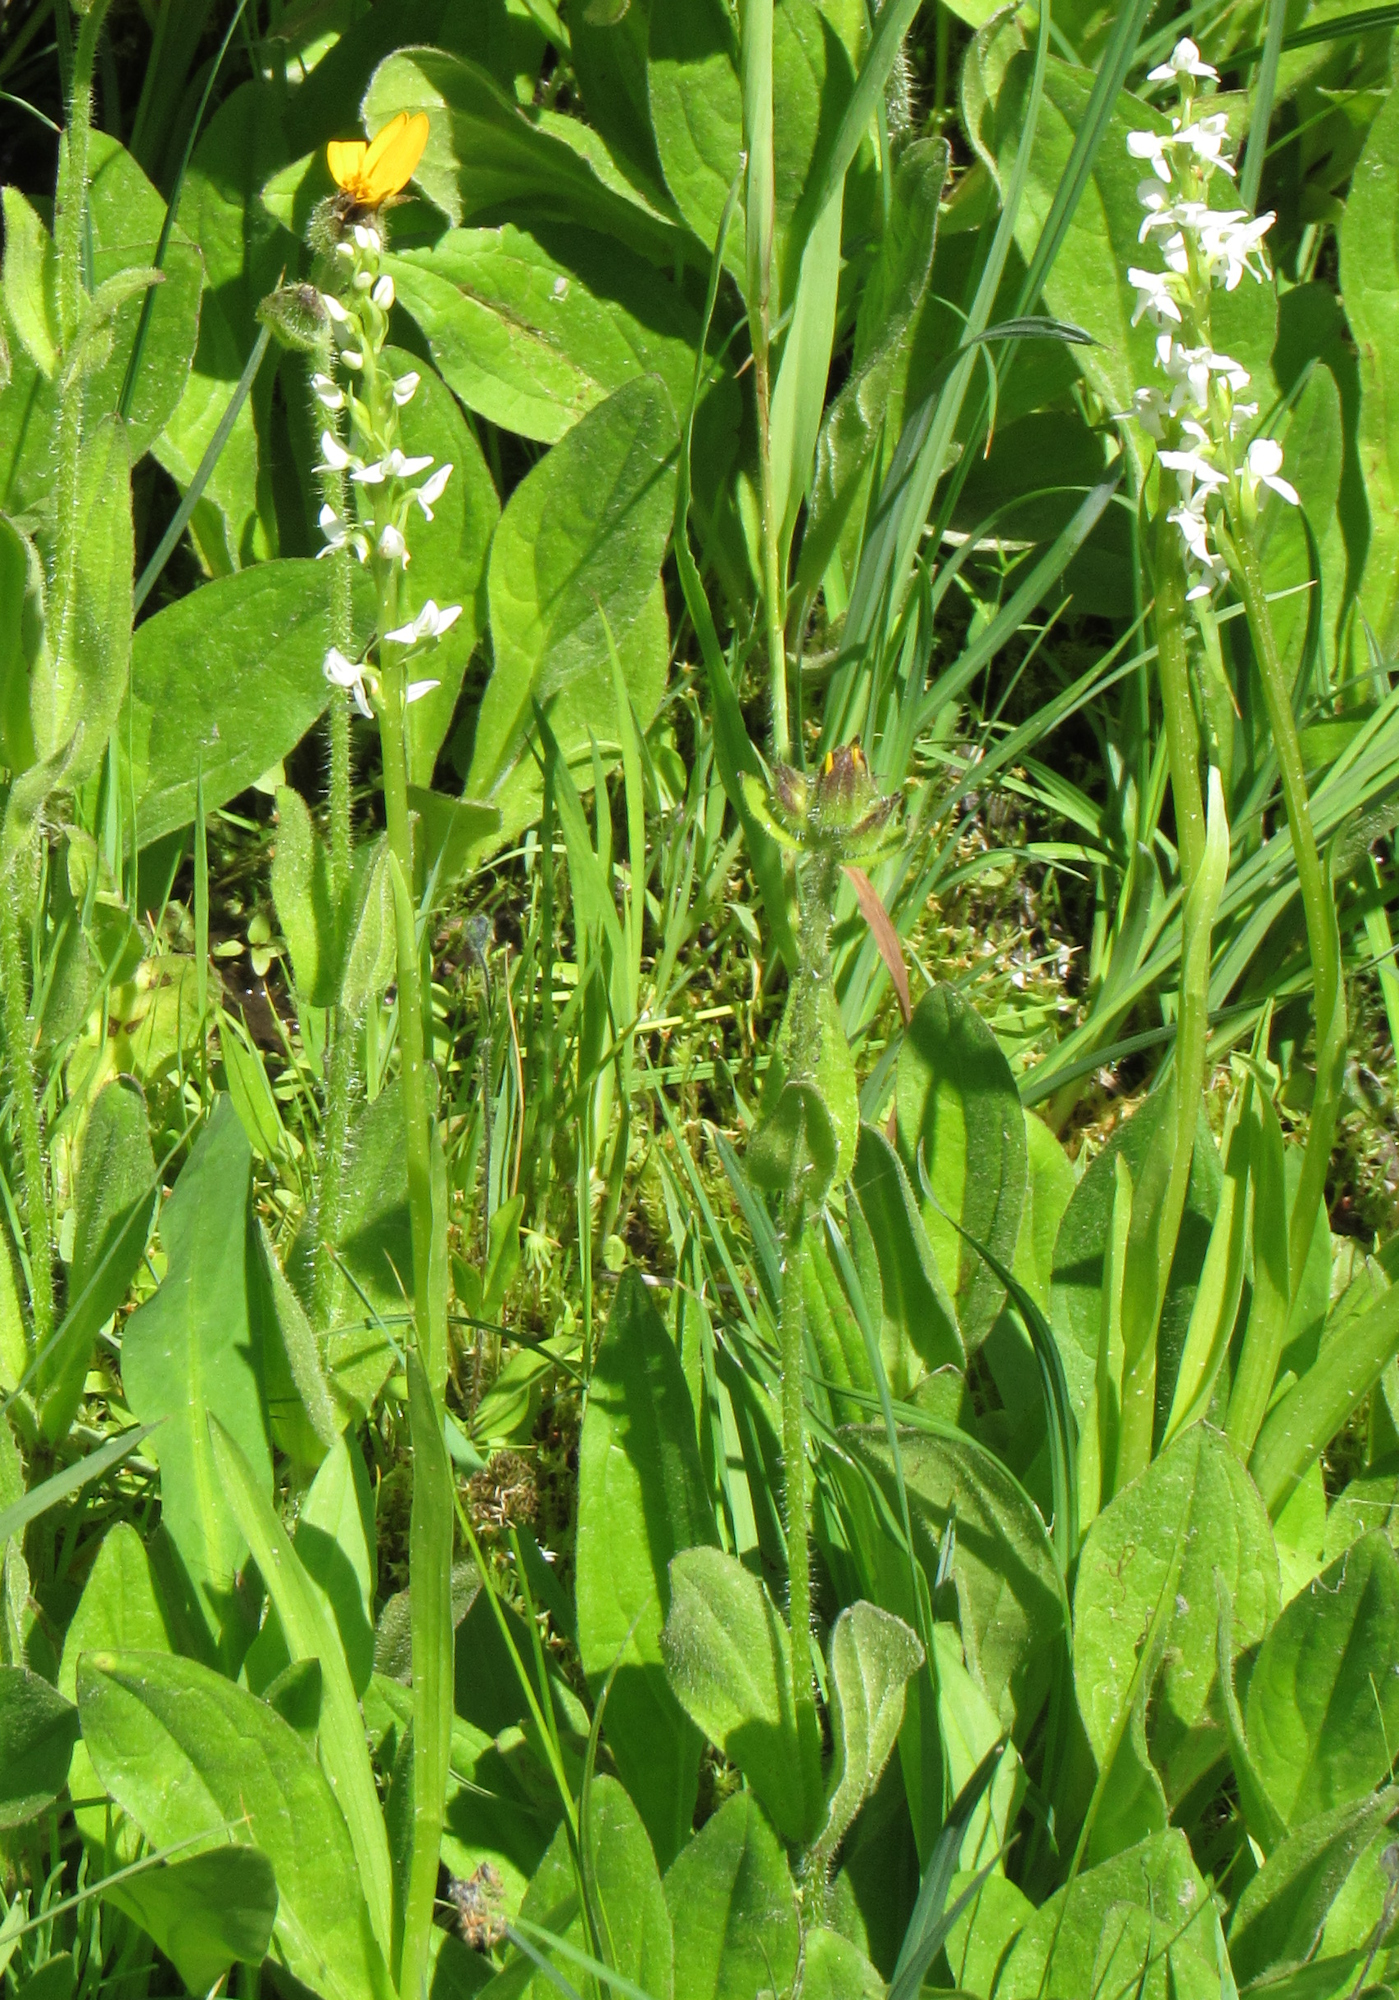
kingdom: Plantae
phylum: Tracheophyta
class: Liliopsida
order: Asparagales
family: Orchidaceae
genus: Platanthera
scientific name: Platanthera dilatata
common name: Bog candles
